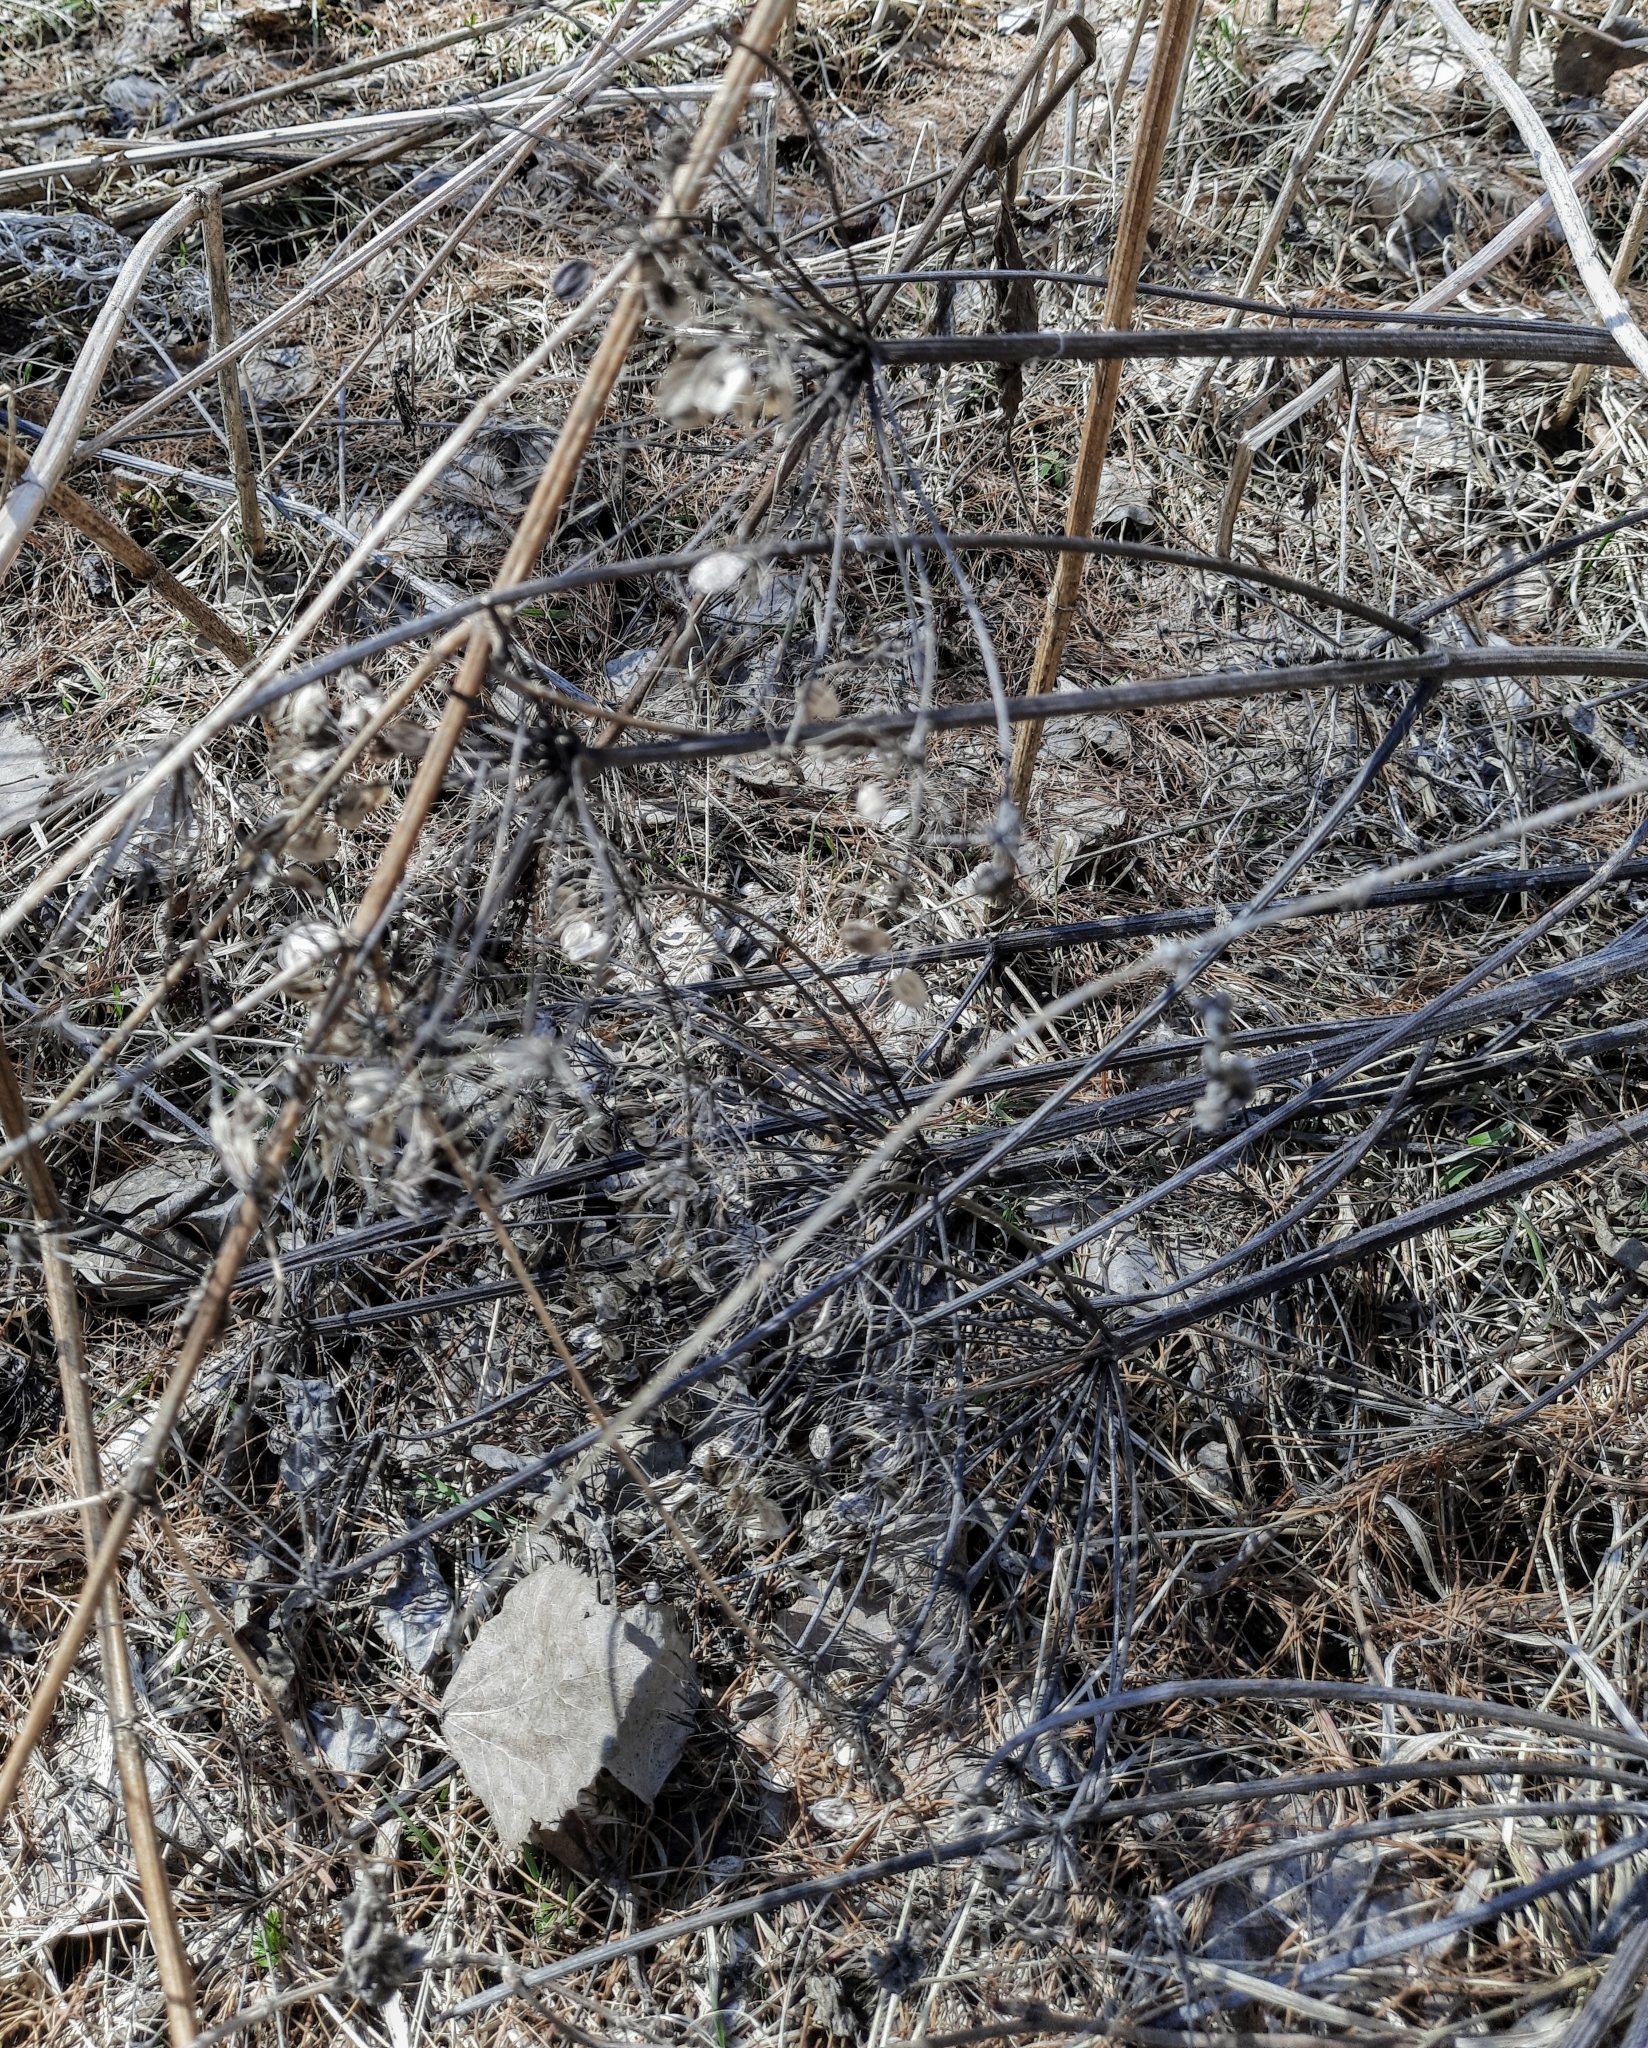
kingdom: Plantae
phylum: Tracheophyta
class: Magnoliopsida
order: Apiales
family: Apiaceae
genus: Heracleum
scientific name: Heracleum sosnowskyi
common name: Sosnowsky's hogweed
